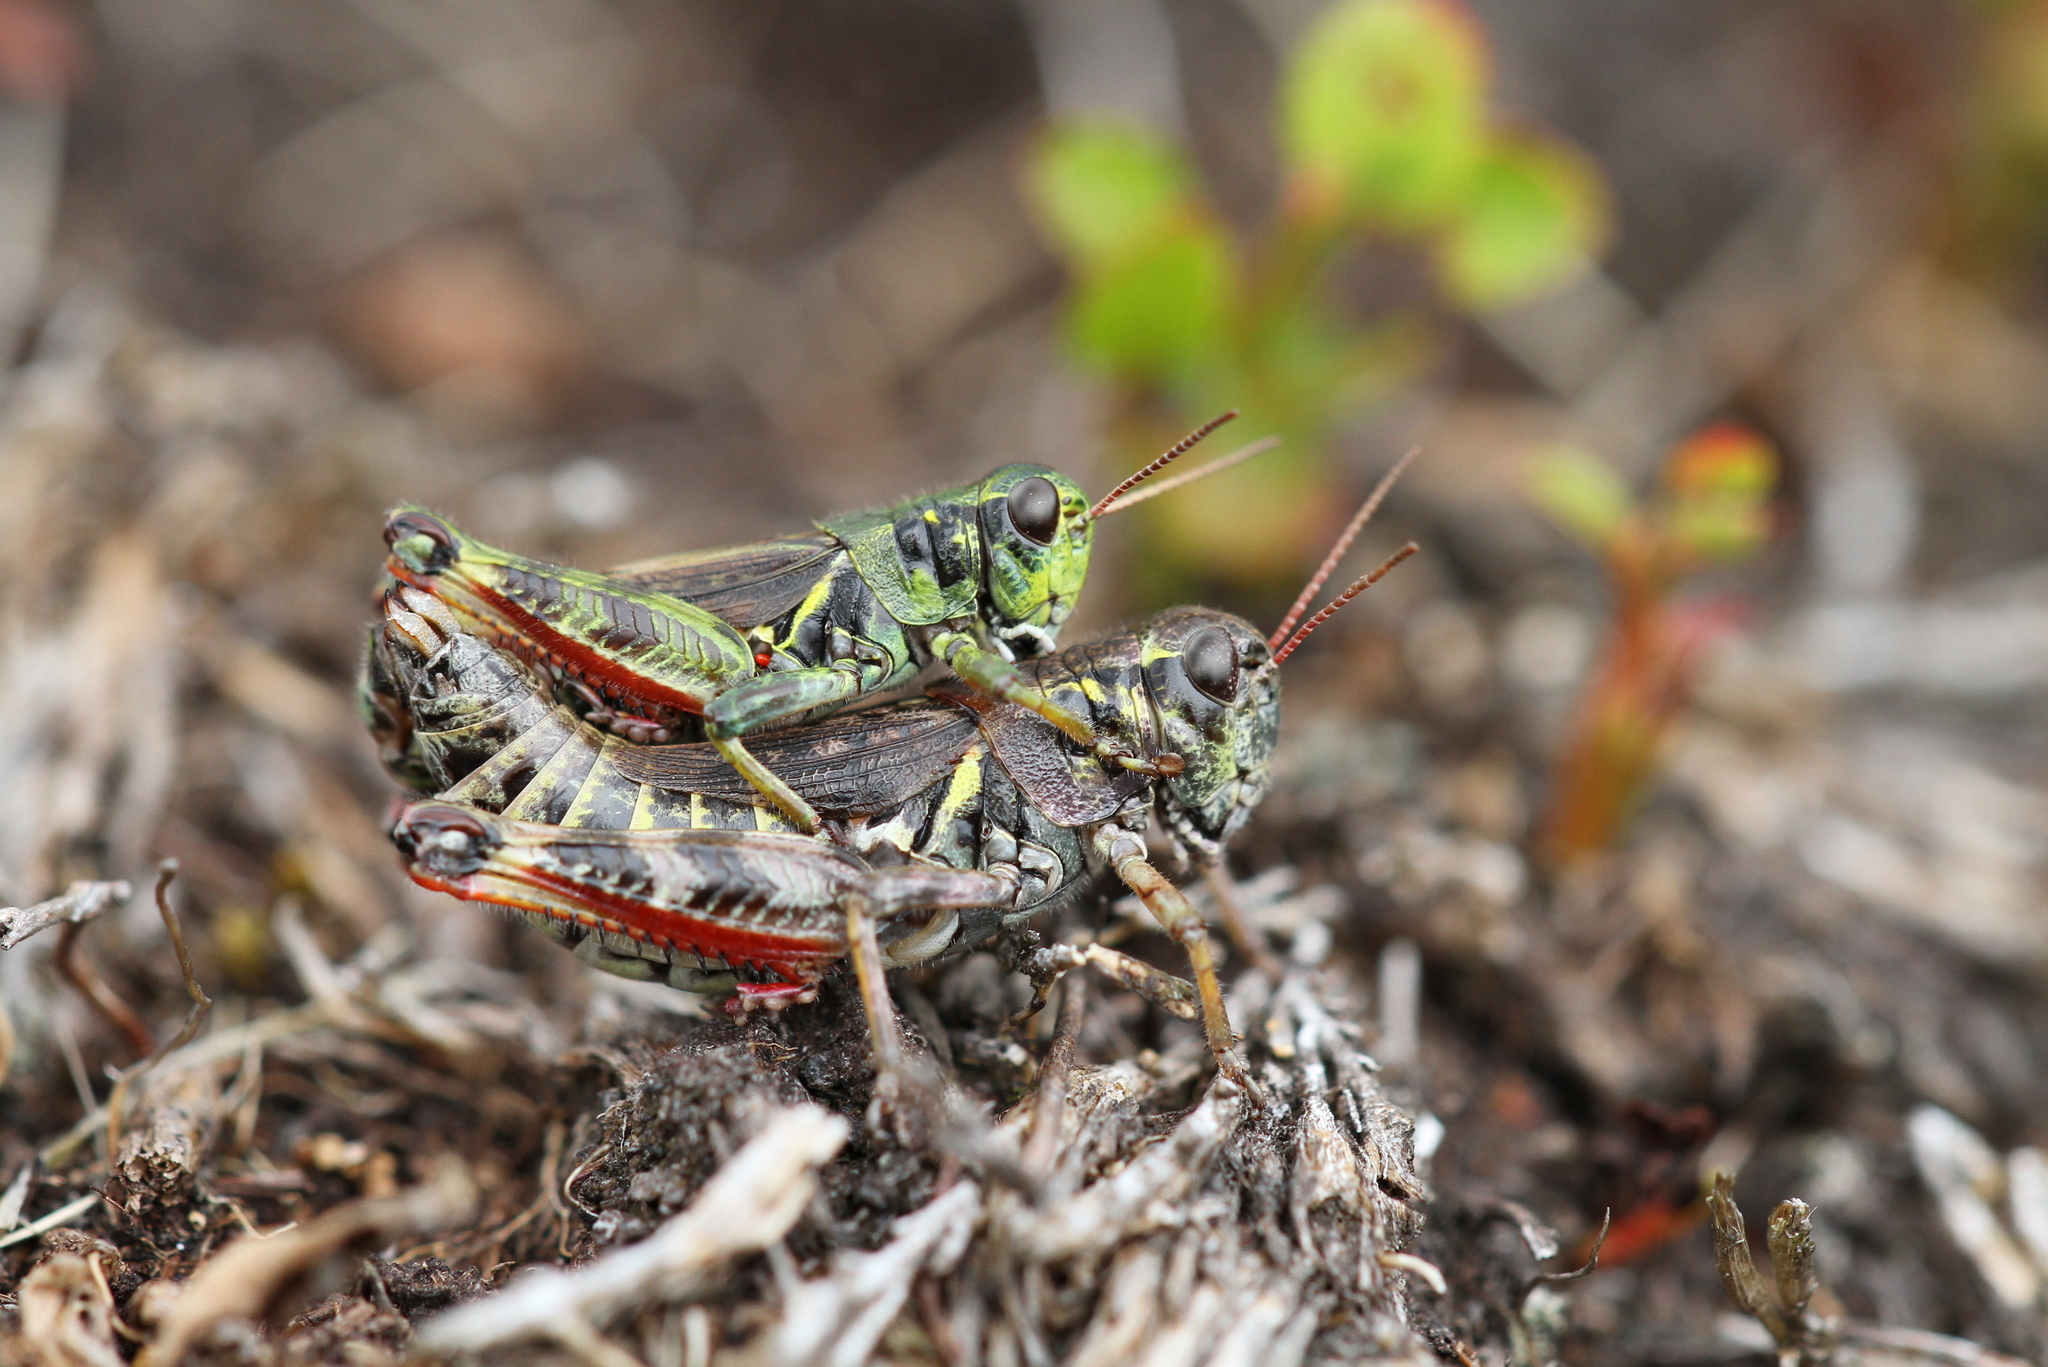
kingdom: Animalia
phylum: Arthropoda
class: Insecta
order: Orthoptera
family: Acrididae
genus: Bohemanella
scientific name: Bohemanella frigida
